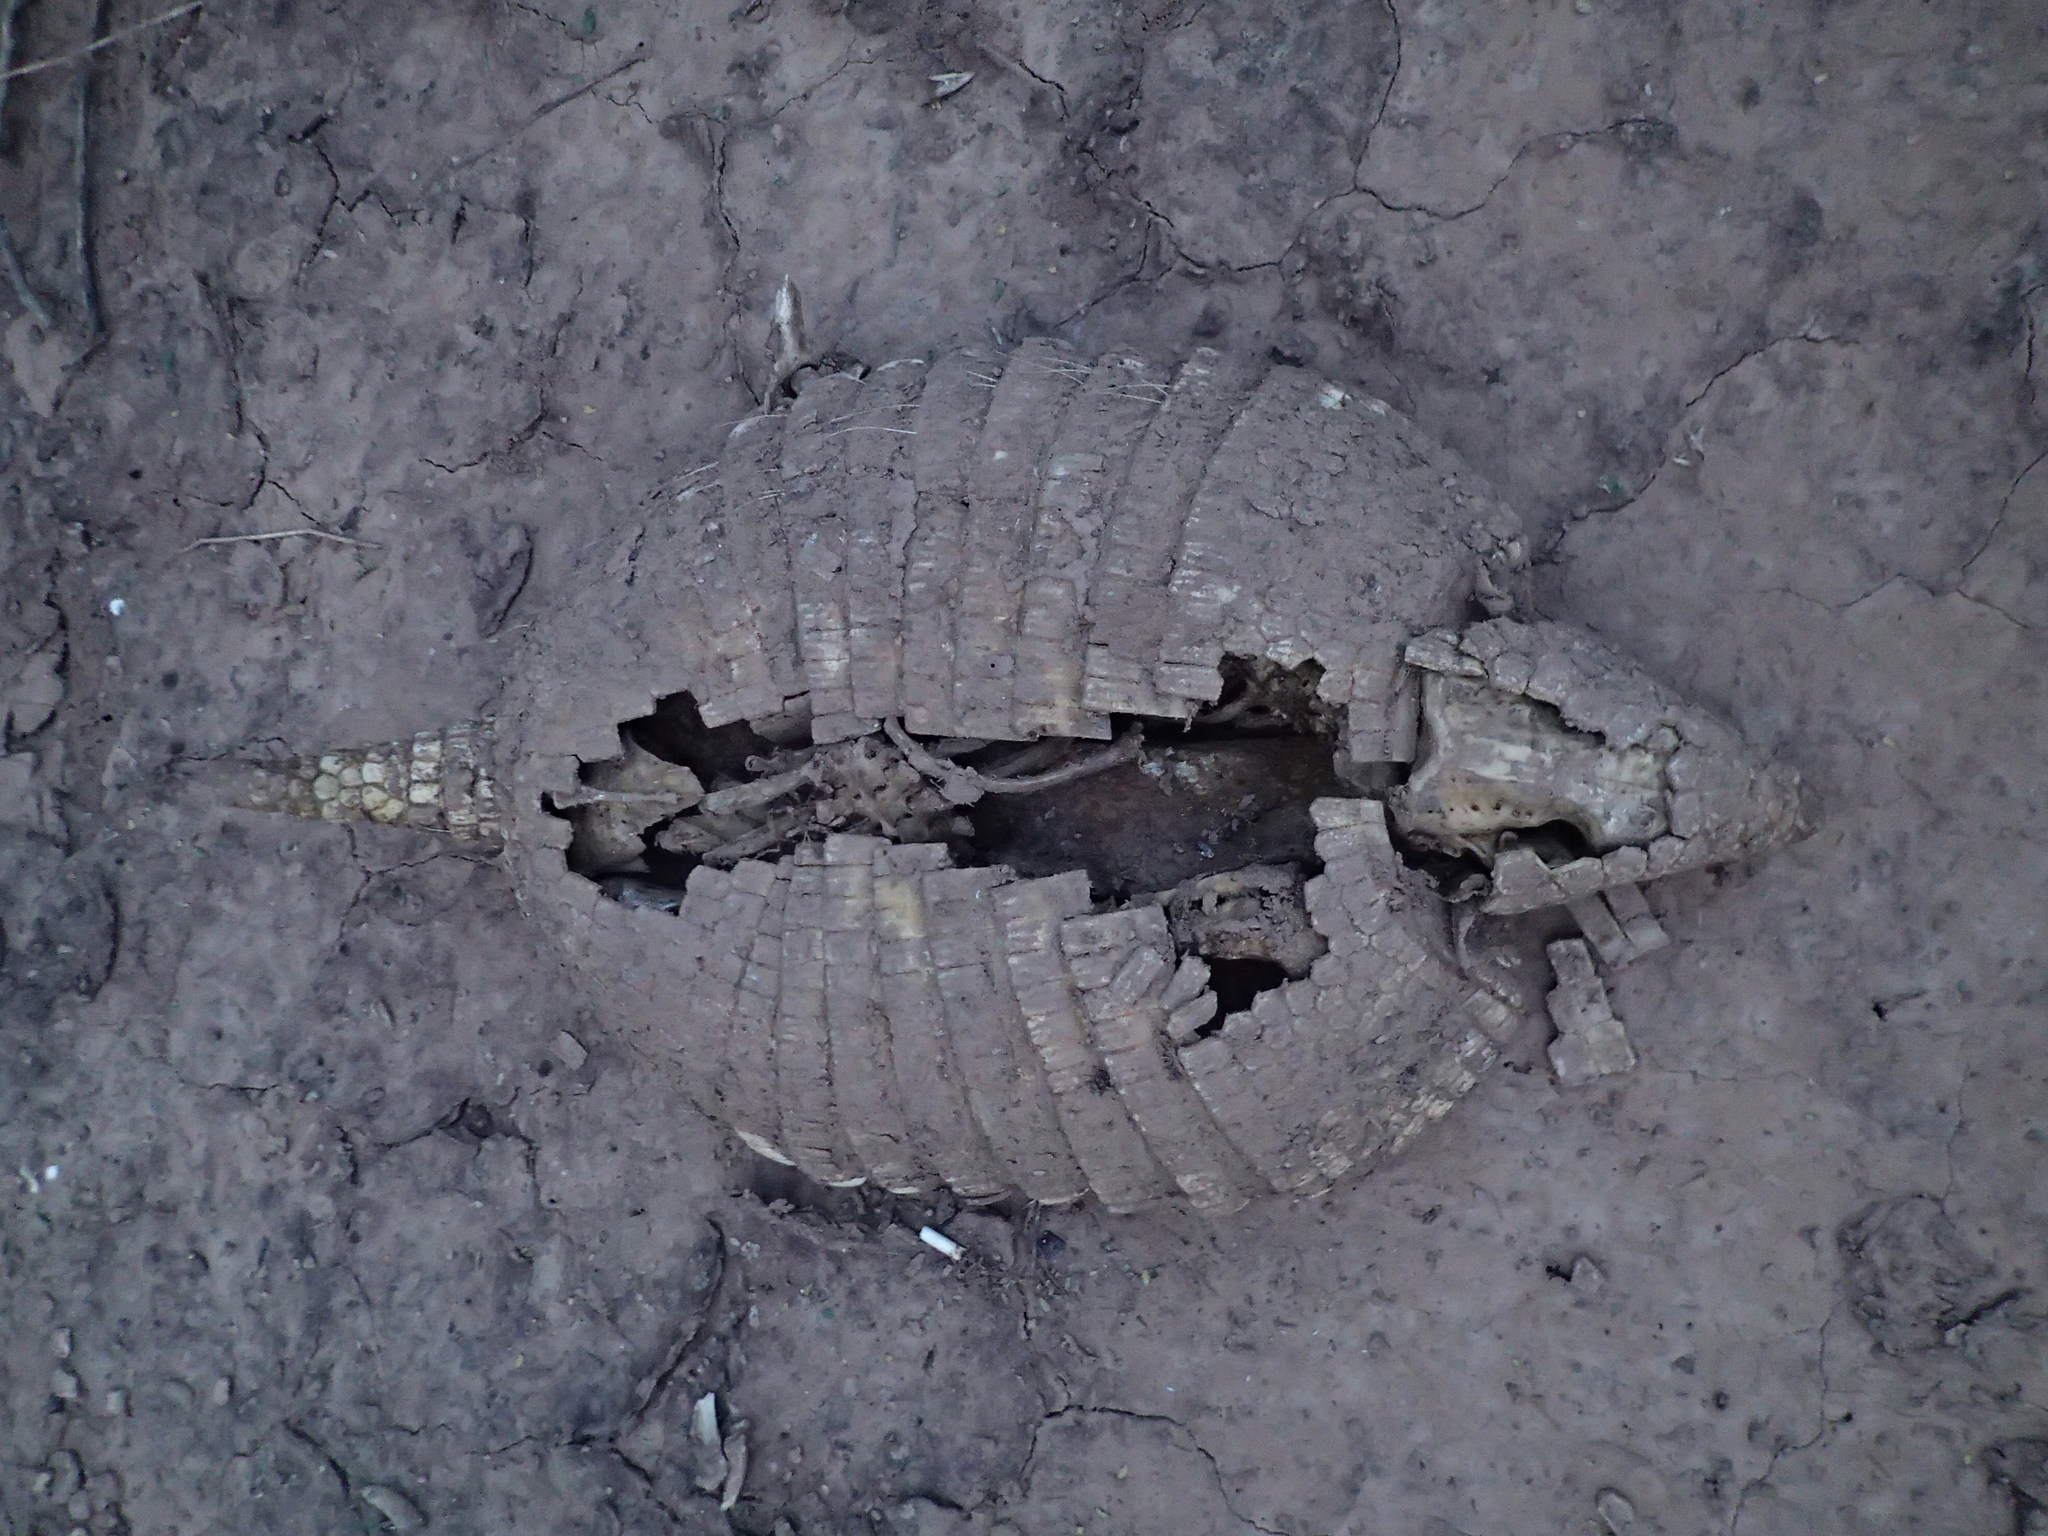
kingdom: Animalia
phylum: Chordata
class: Mammalia
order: Cingulata
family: Dasypodidae
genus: Euphractus
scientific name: Euphractus sexcinctus
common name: Six-banded armadillo
